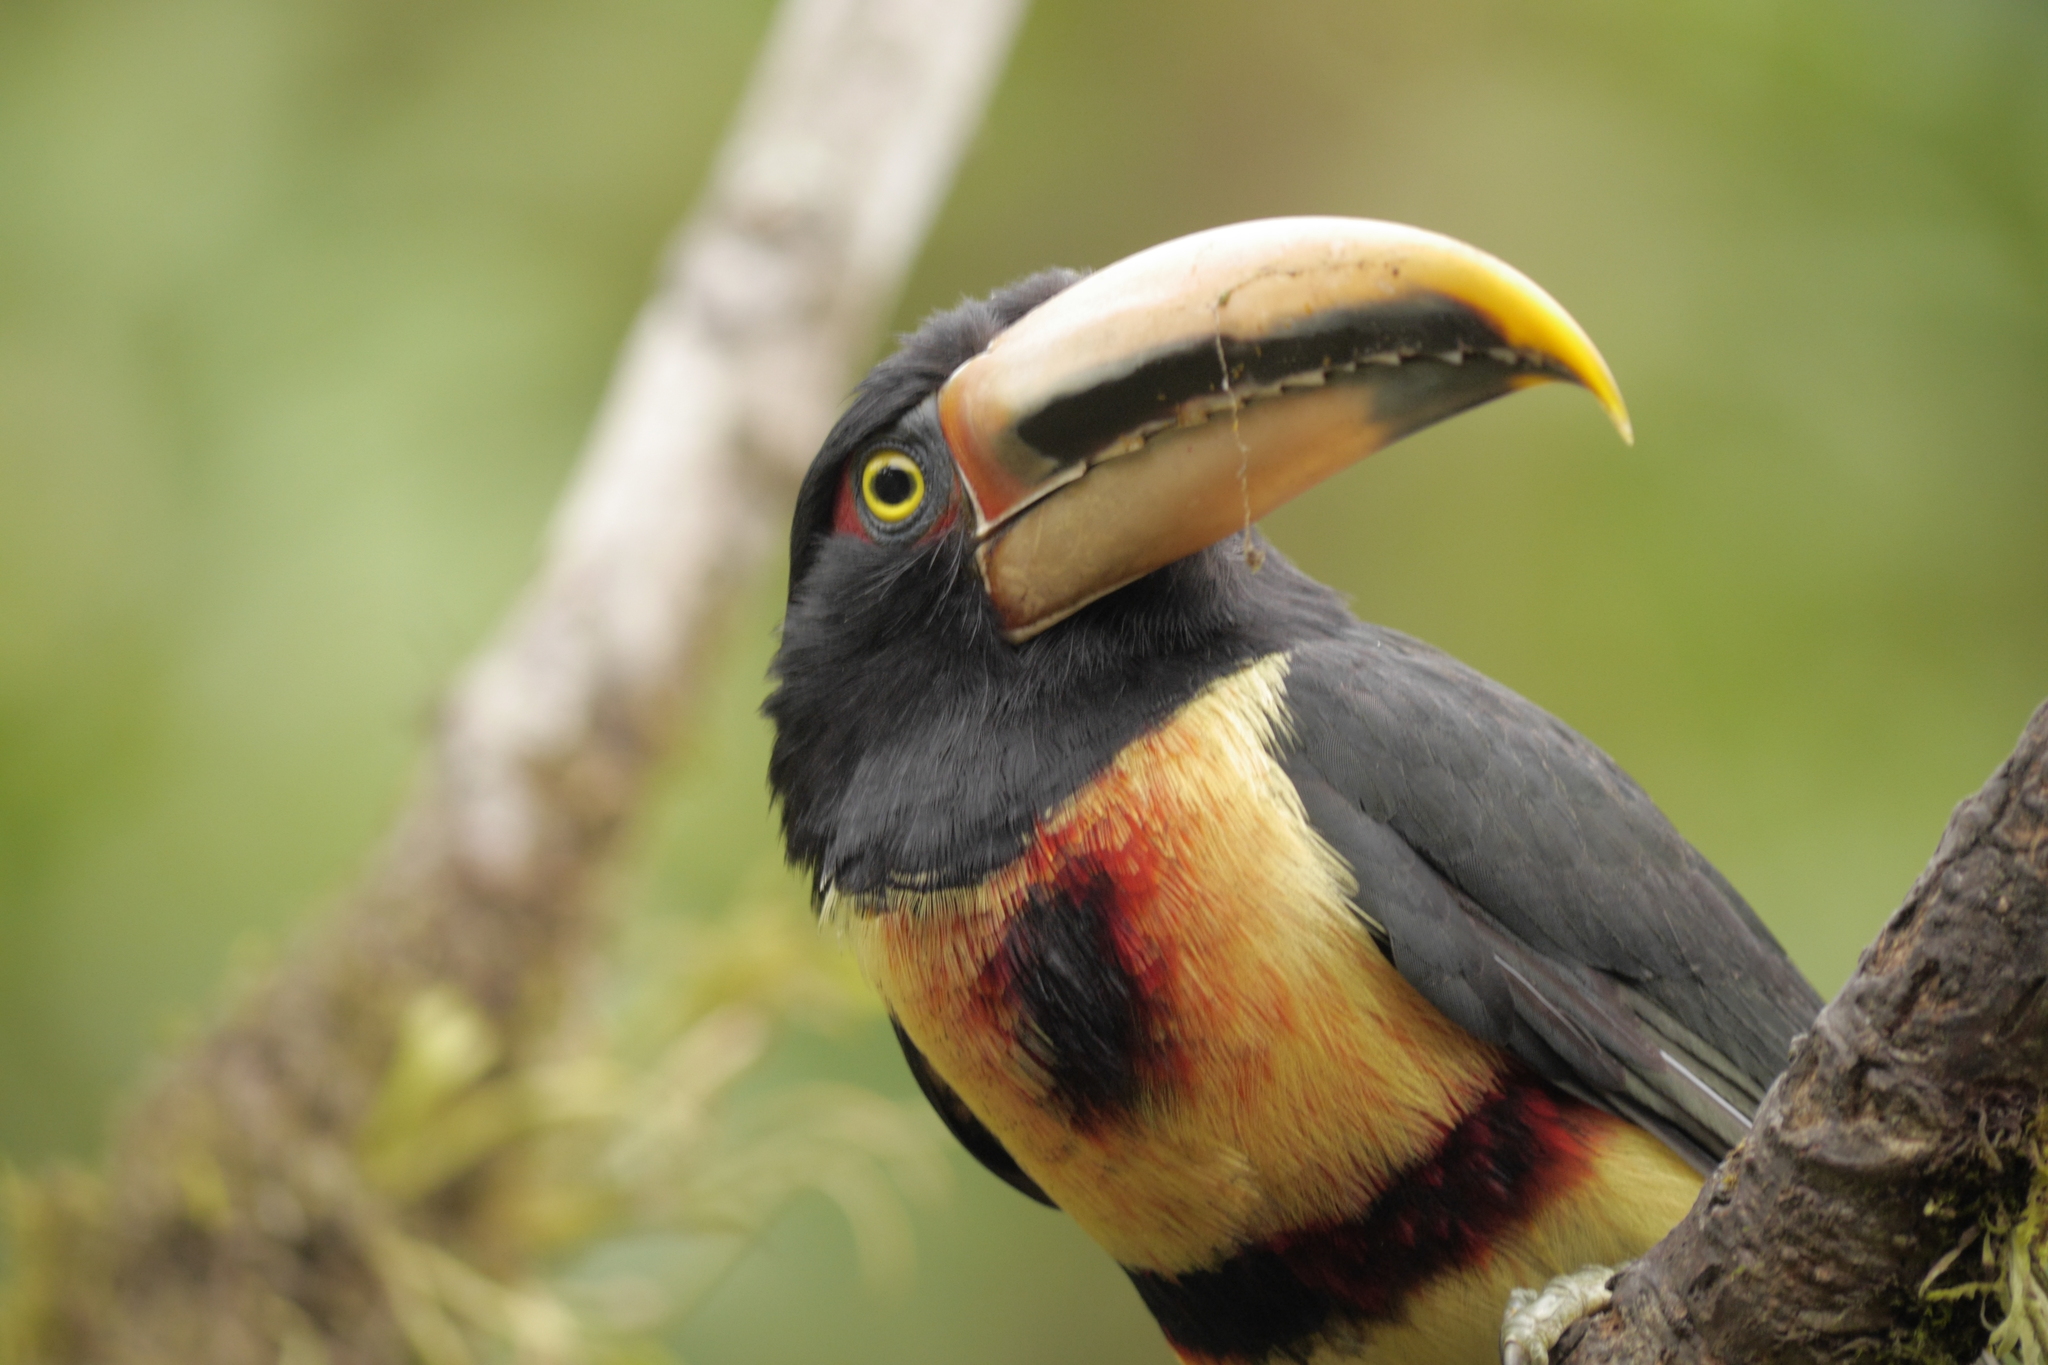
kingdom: Animalia
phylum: Chordata
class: Aves
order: Piciformes
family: Ramphastidae
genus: Pteroglossus
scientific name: Pteroglossus torquatus
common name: Collared aracari
